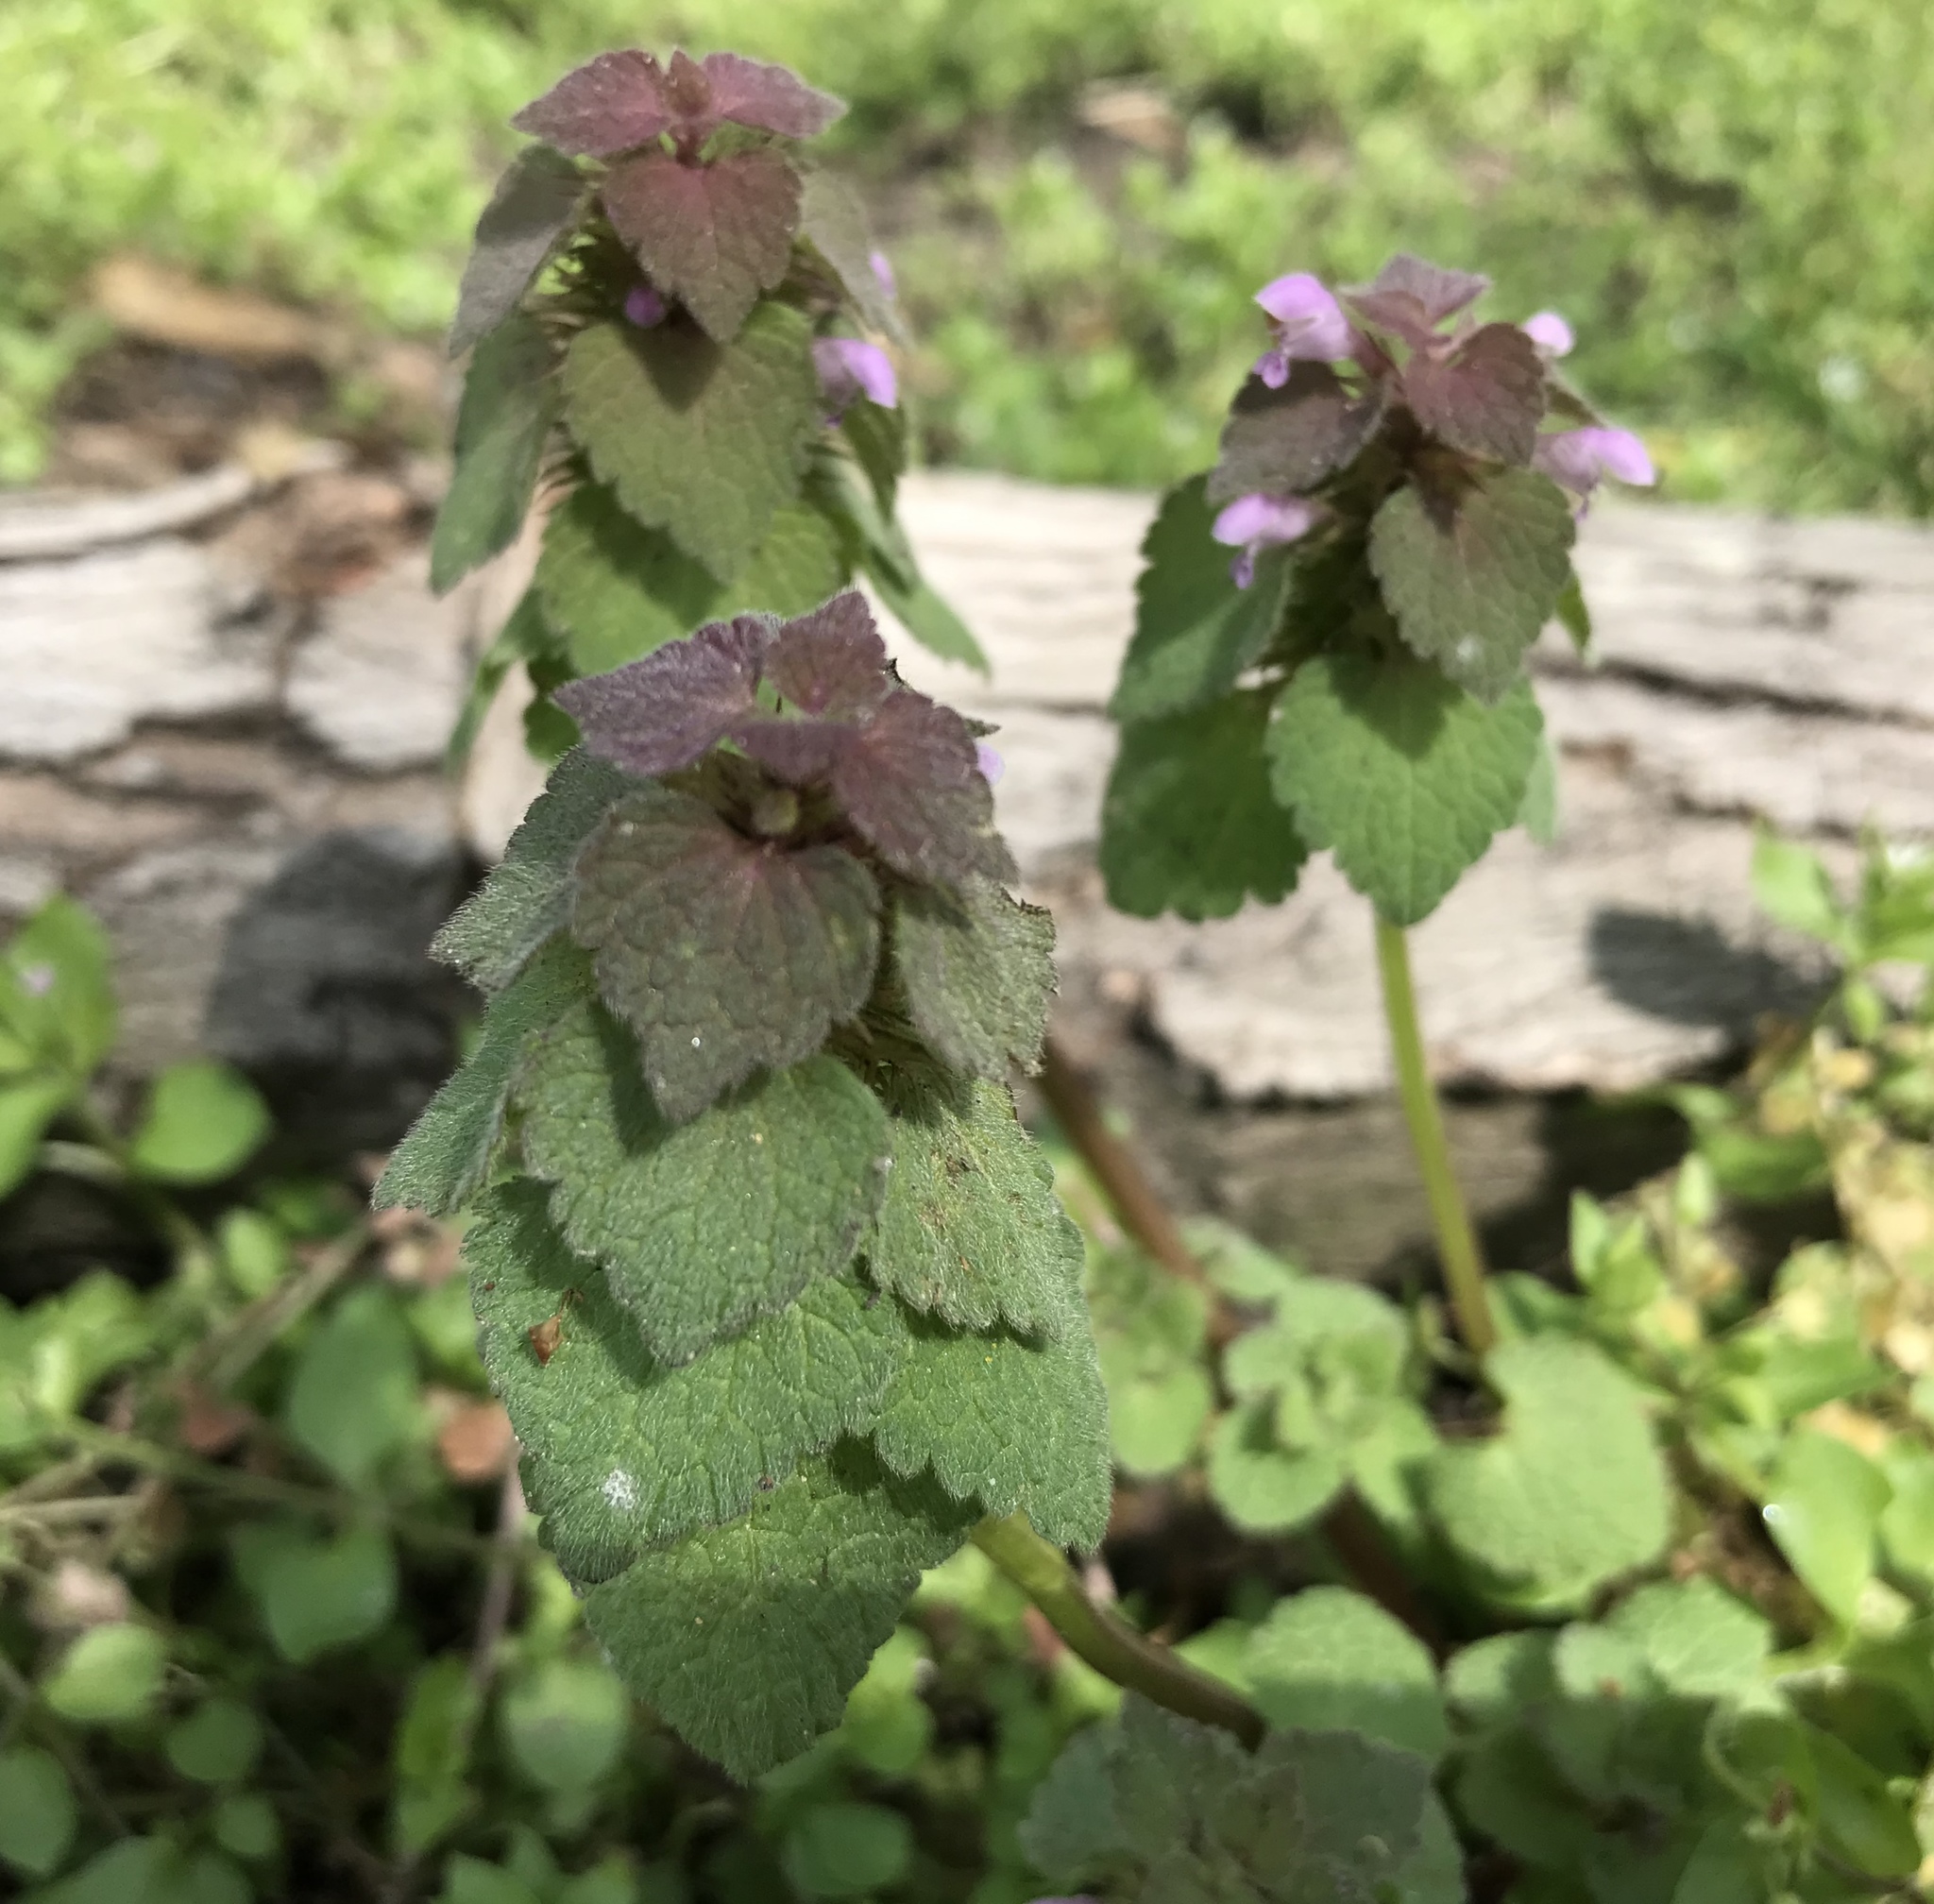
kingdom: Plantae
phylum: Tracheophyta
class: Magnoliopsida
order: Lamiales
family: Lamiaceae
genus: Lamium
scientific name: Lamium purpureum
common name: Red dead-nettle
